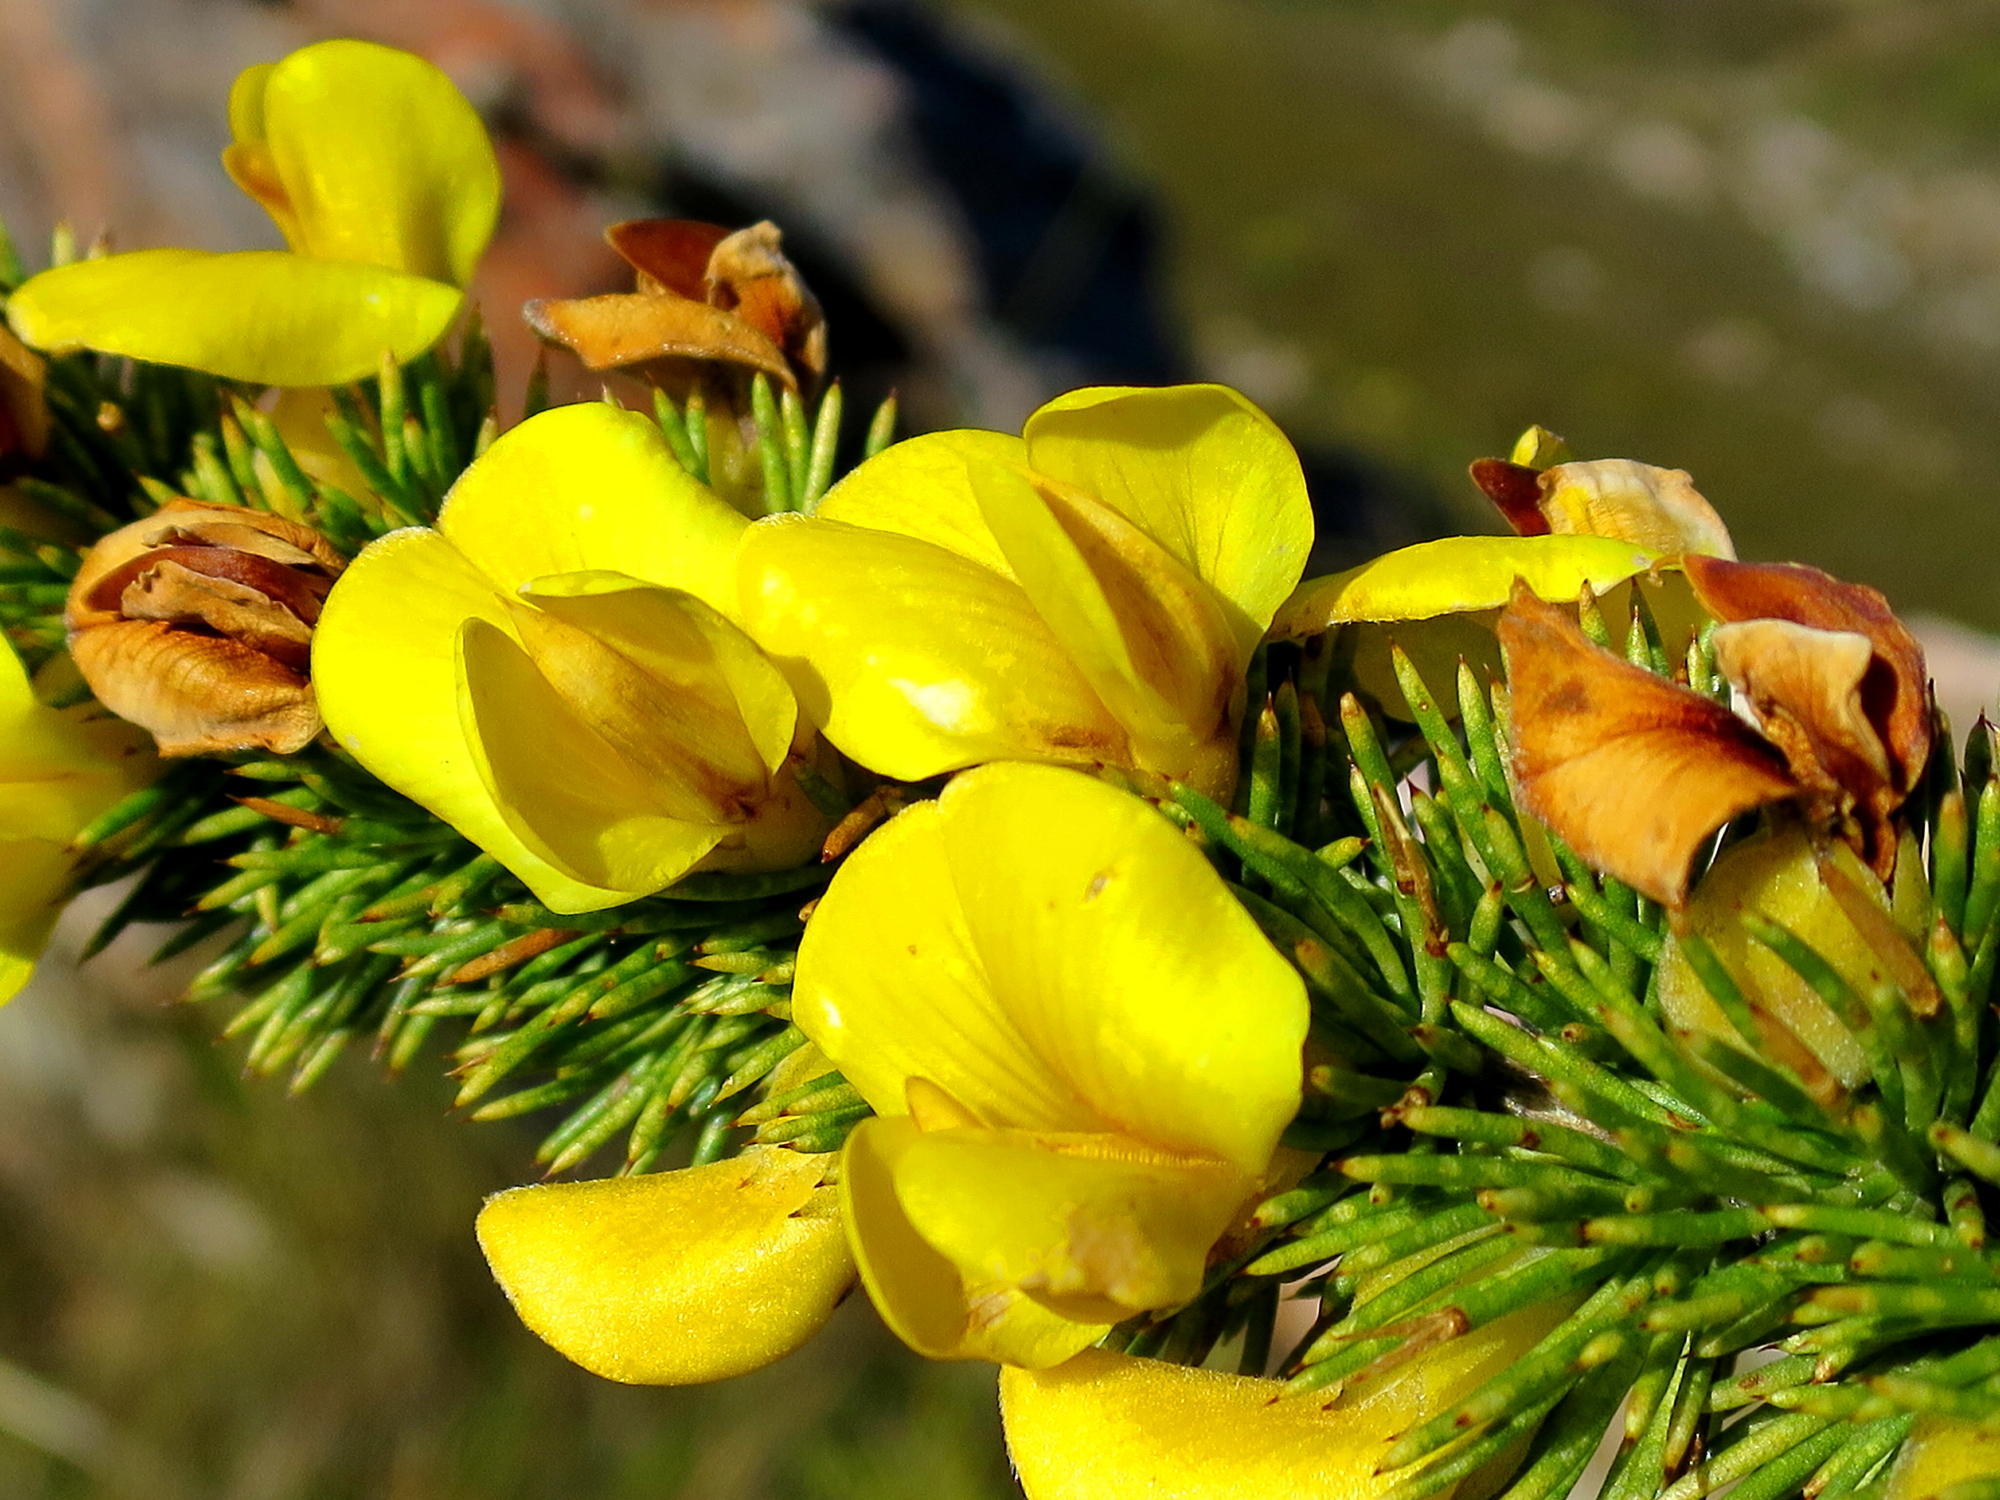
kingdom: Plantae
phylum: Tracheophyta
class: Magnoliopsida
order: Fabales
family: Fabaceae
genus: Aspalathus
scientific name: Aspalathus sceptrumaureum
